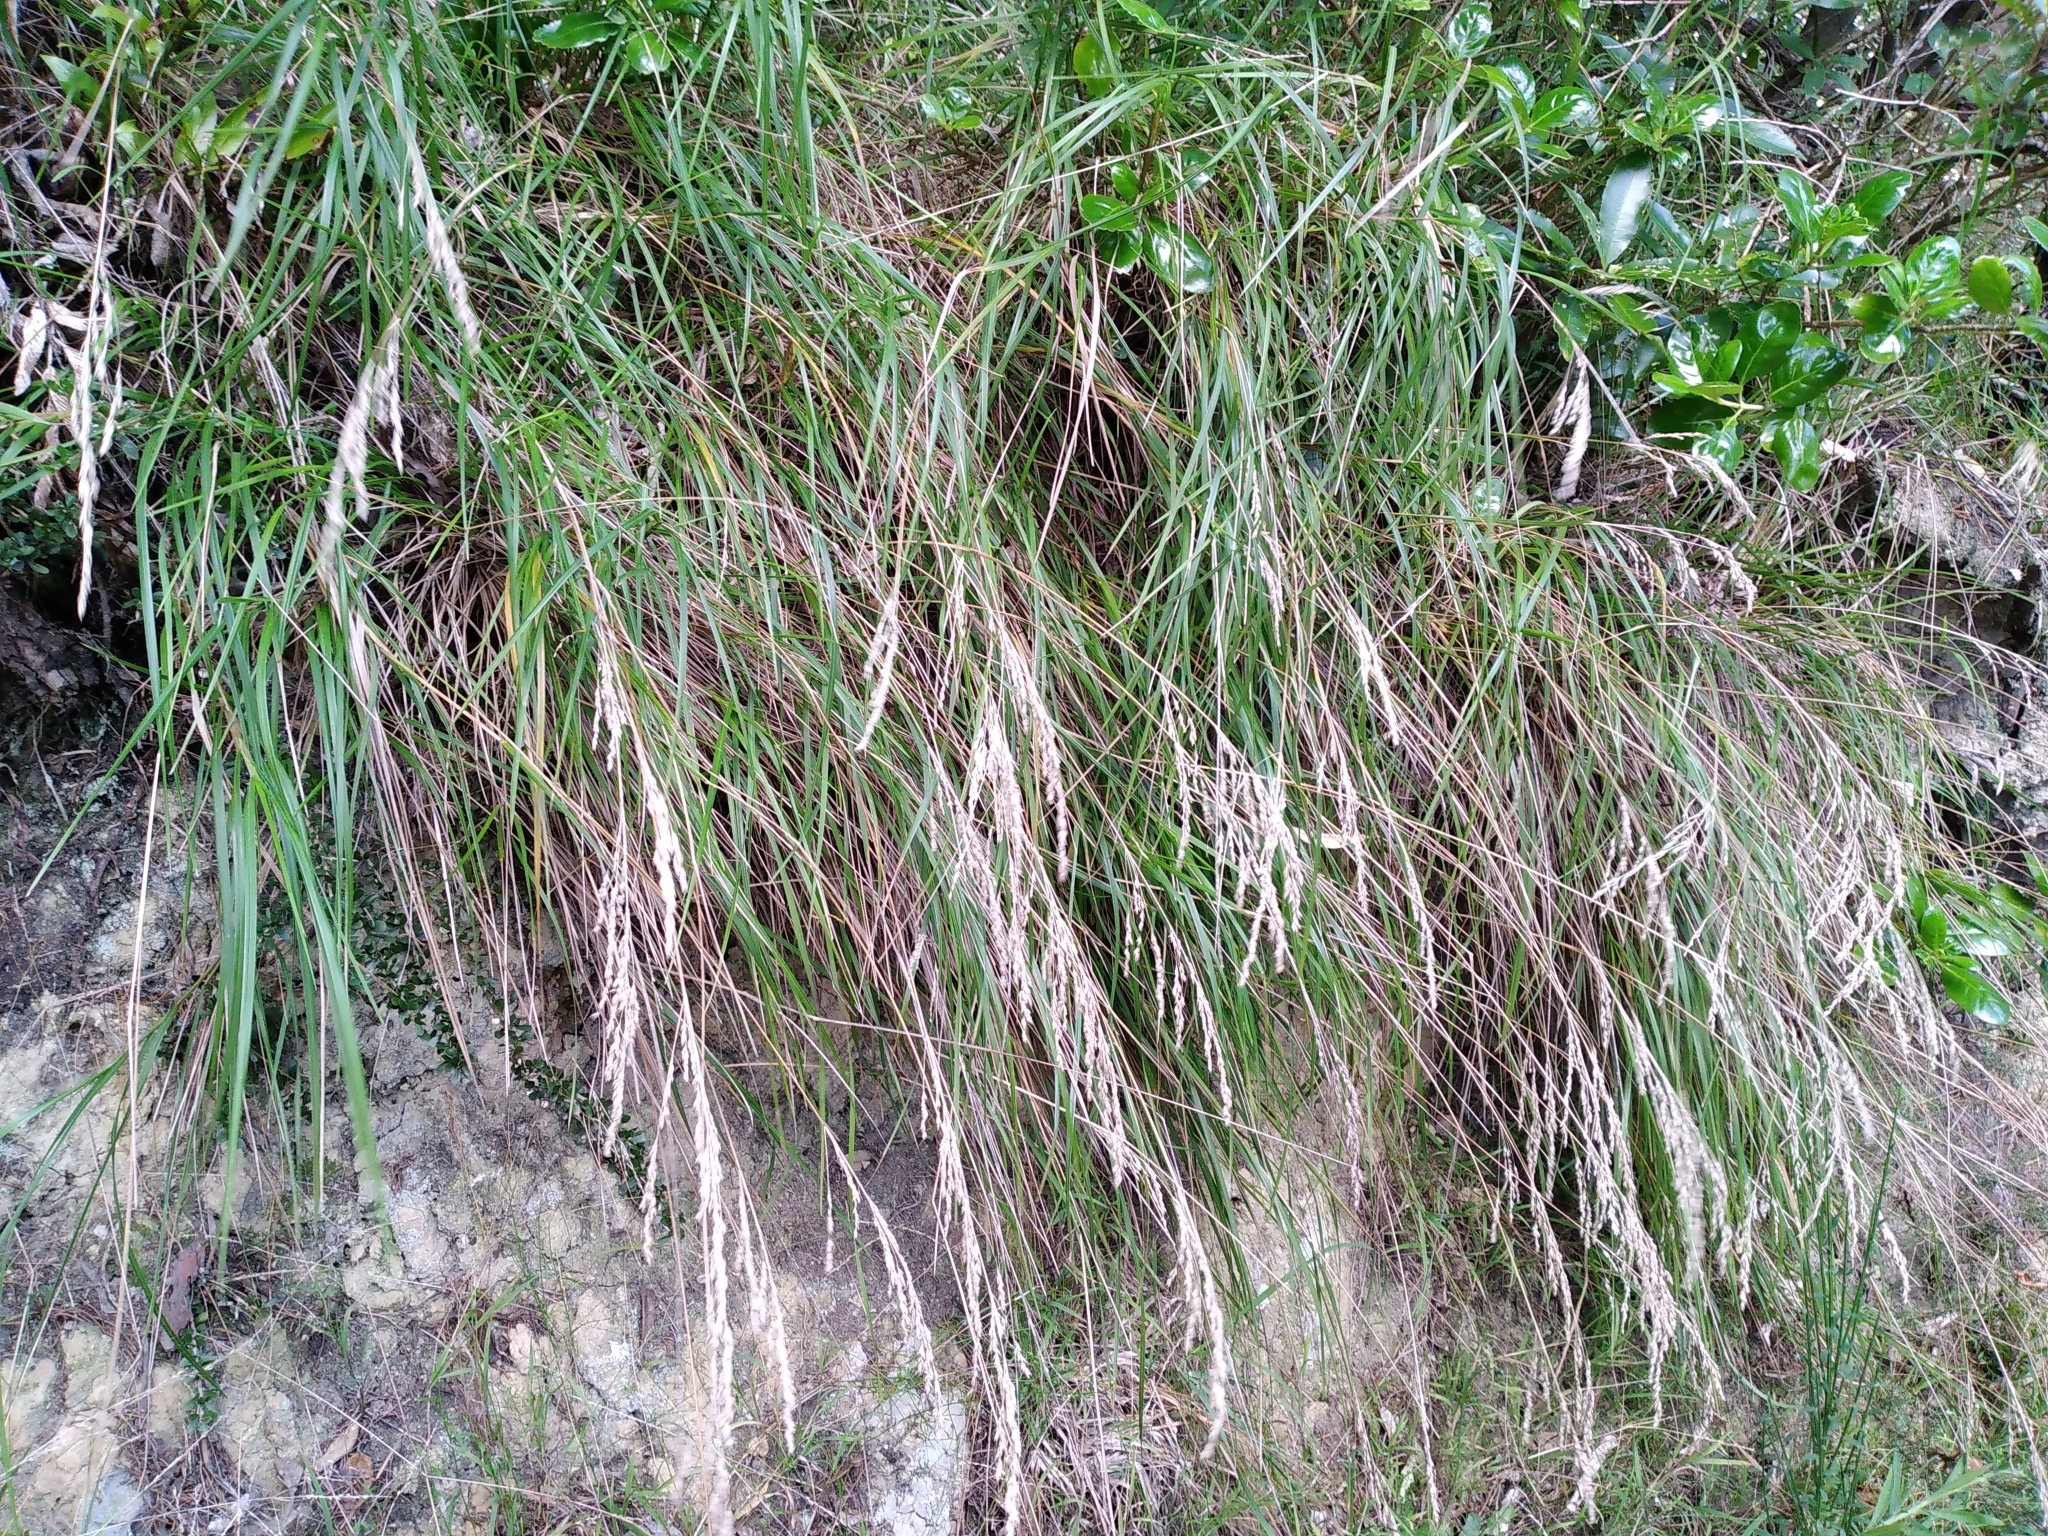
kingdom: Plantae
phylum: Tracheophyta
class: Liliopsida
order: Poales
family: Poaceae
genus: Poa
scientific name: Poa anceps
